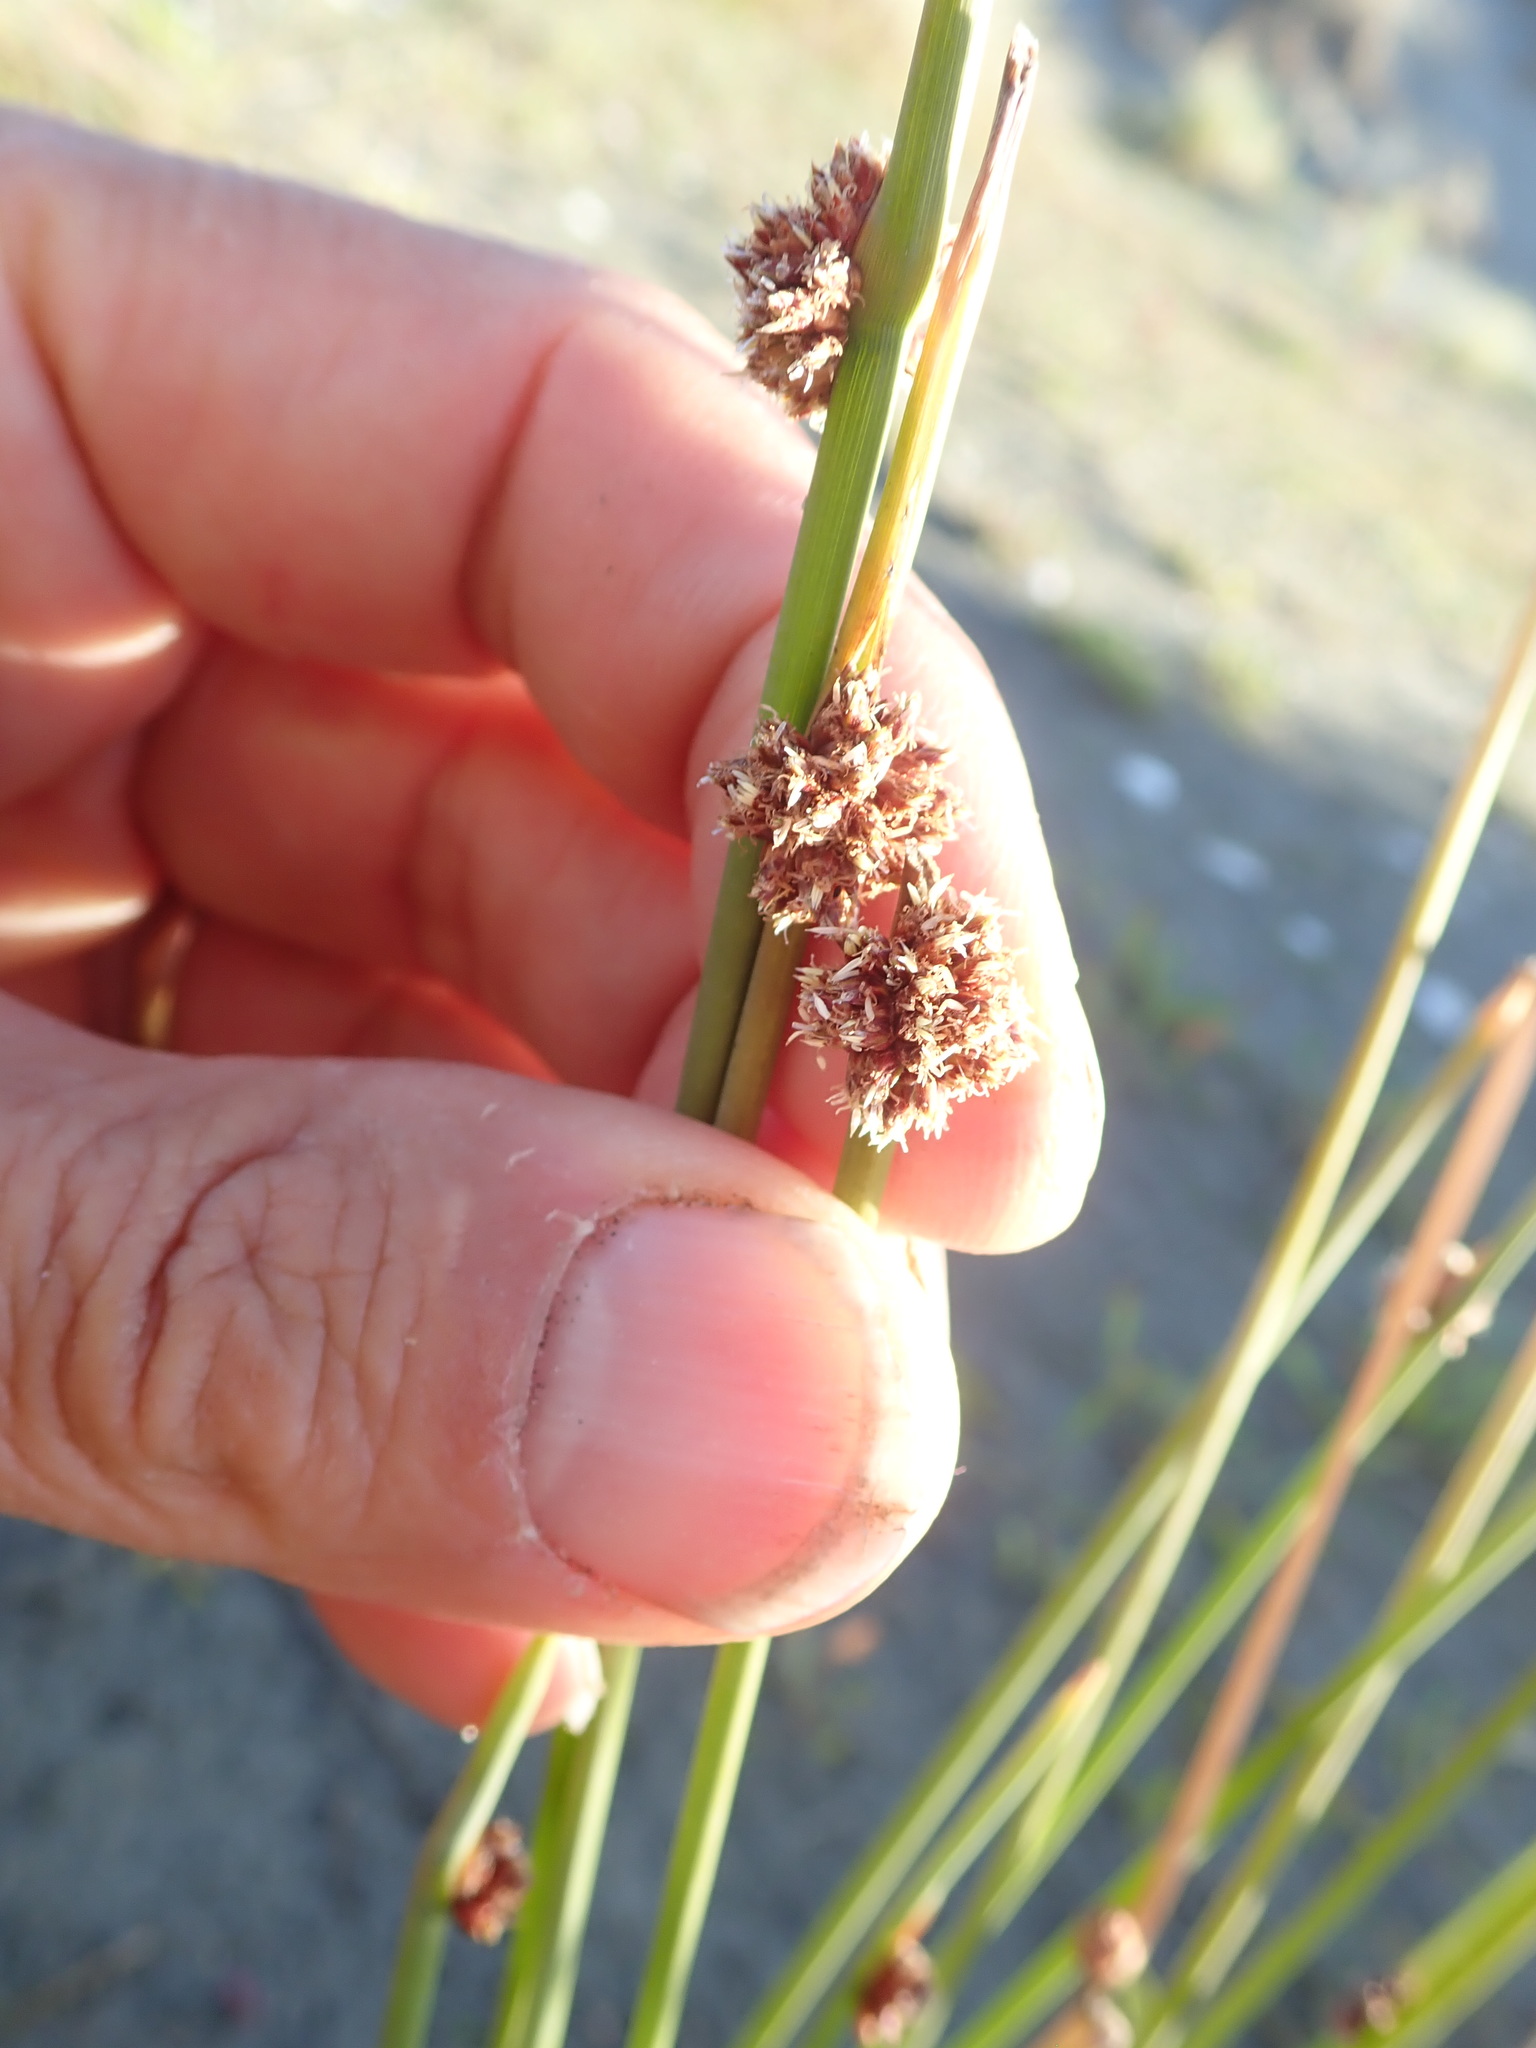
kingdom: Plantae
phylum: Tracheophyta
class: Liliopsida
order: Poales
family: Cyperaceae
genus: Ficinia
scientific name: Ficinia nodosa
